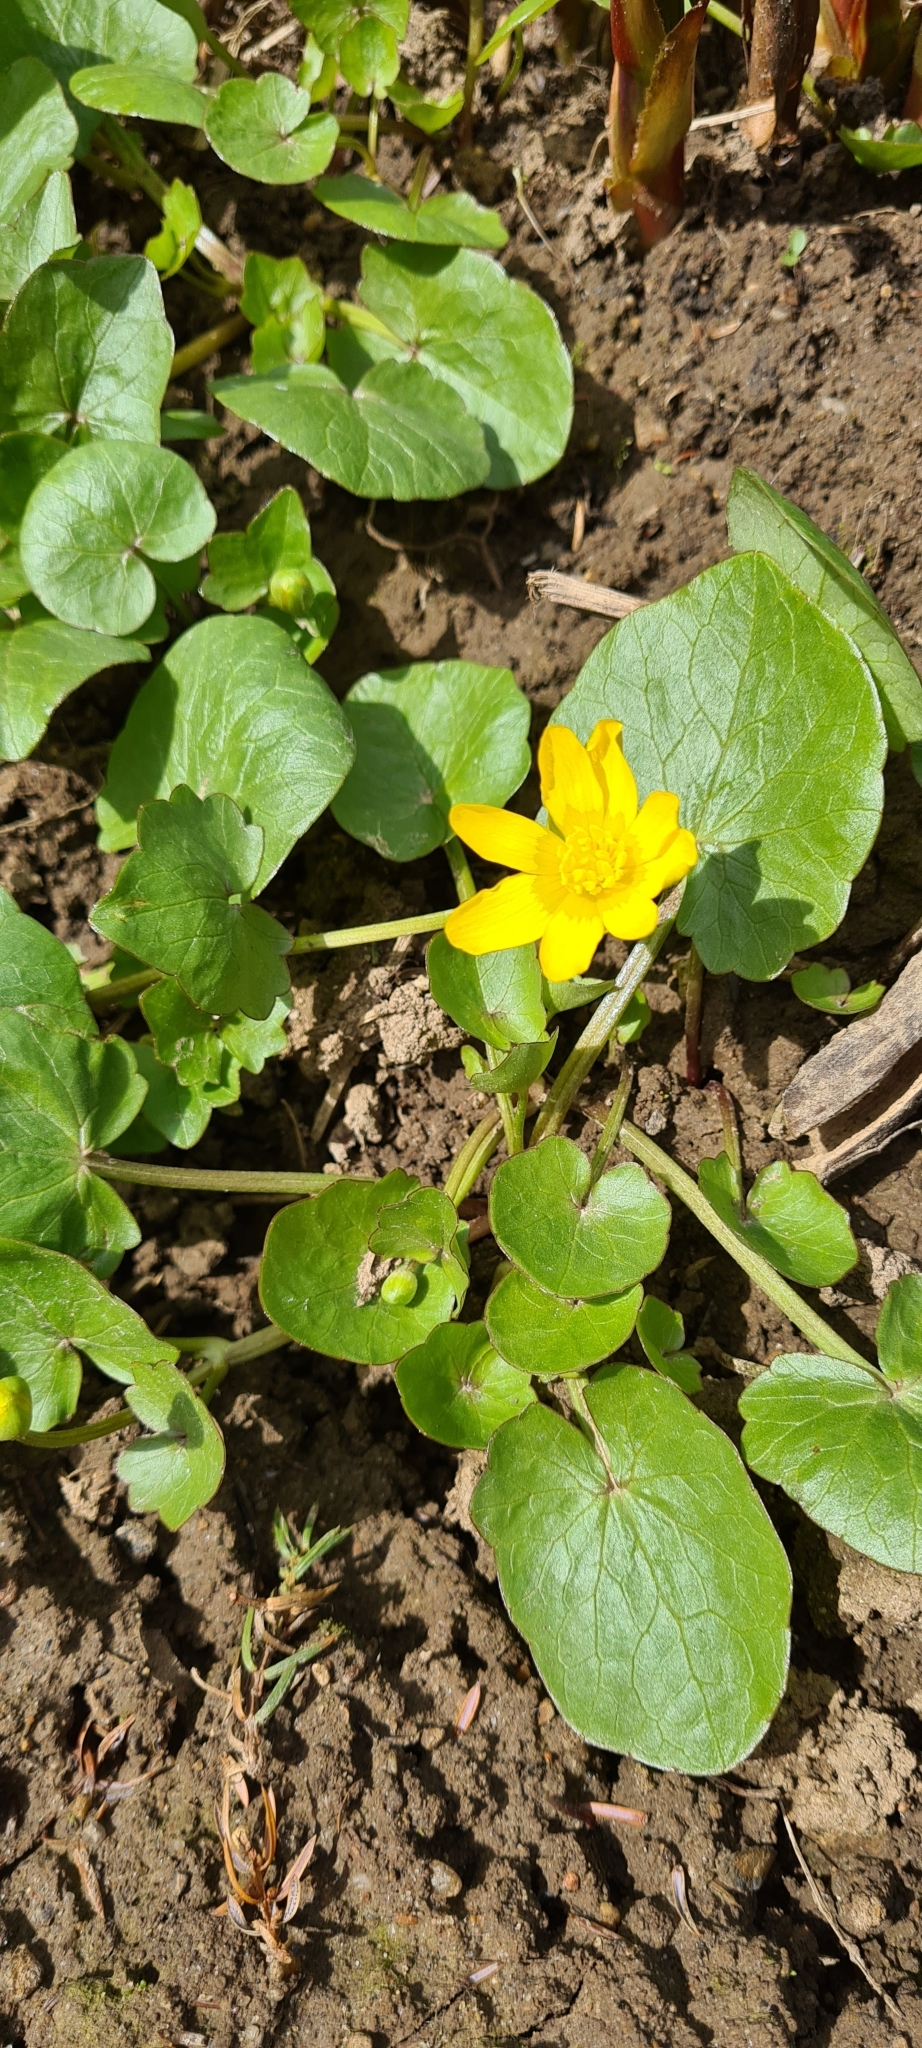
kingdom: Plantae
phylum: Tracheophyta
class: Magnoliopsida
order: Ranunculales
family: Ranunculaceae
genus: Ficaria
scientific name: Ficaria verna
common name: Lesser celandine
